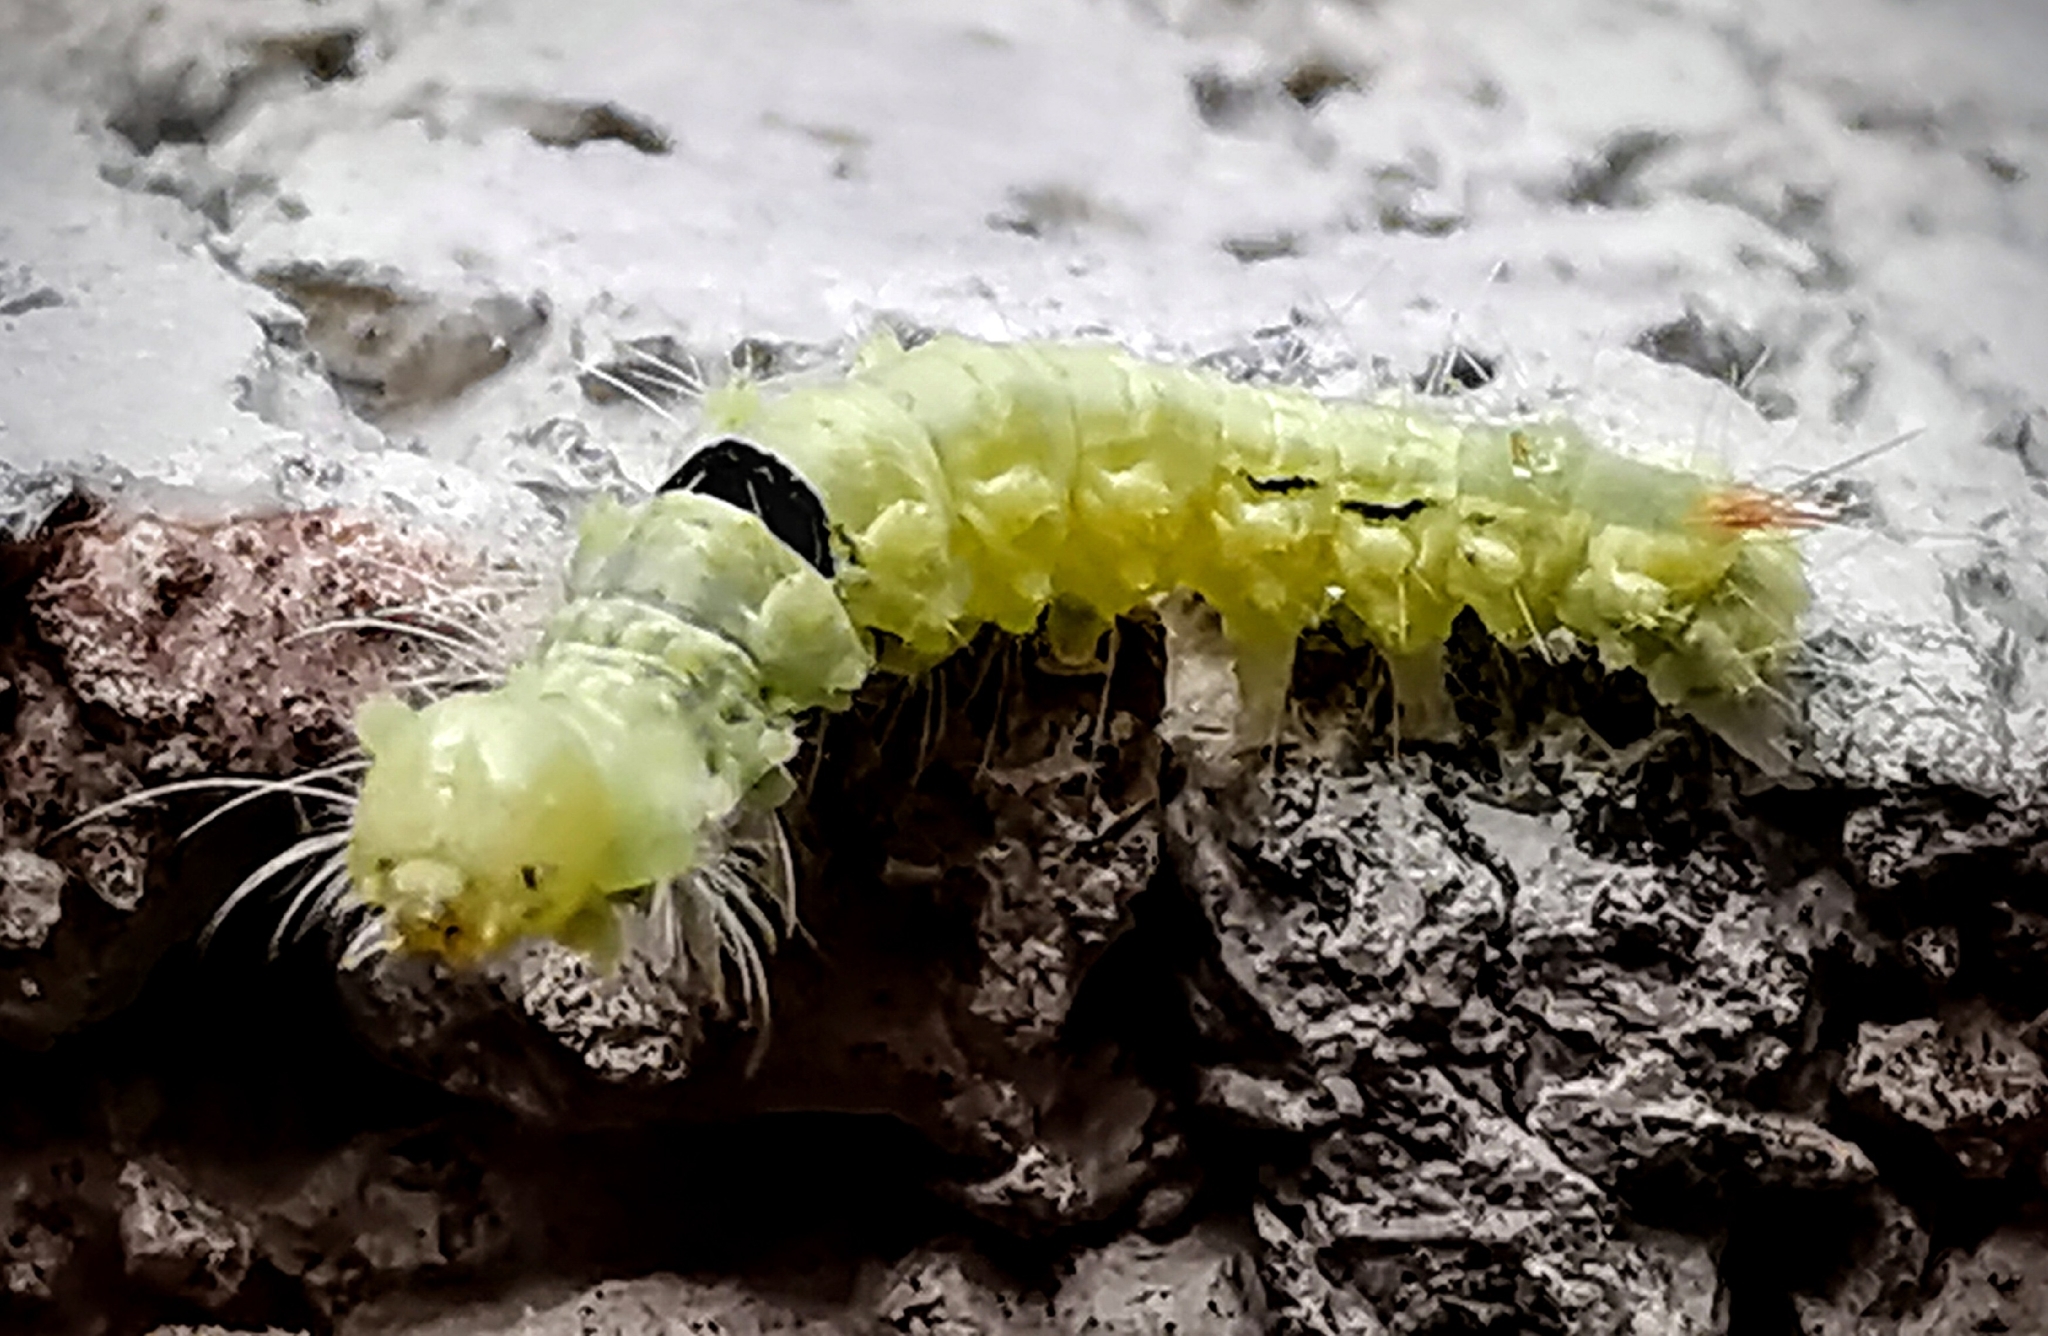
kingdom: Animalia
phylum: Arthropoda
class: Insecta
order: Lepidoptera
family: Erebidae
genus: Calliteara
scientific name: Calliteara pudibunda
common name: Pale tussock
